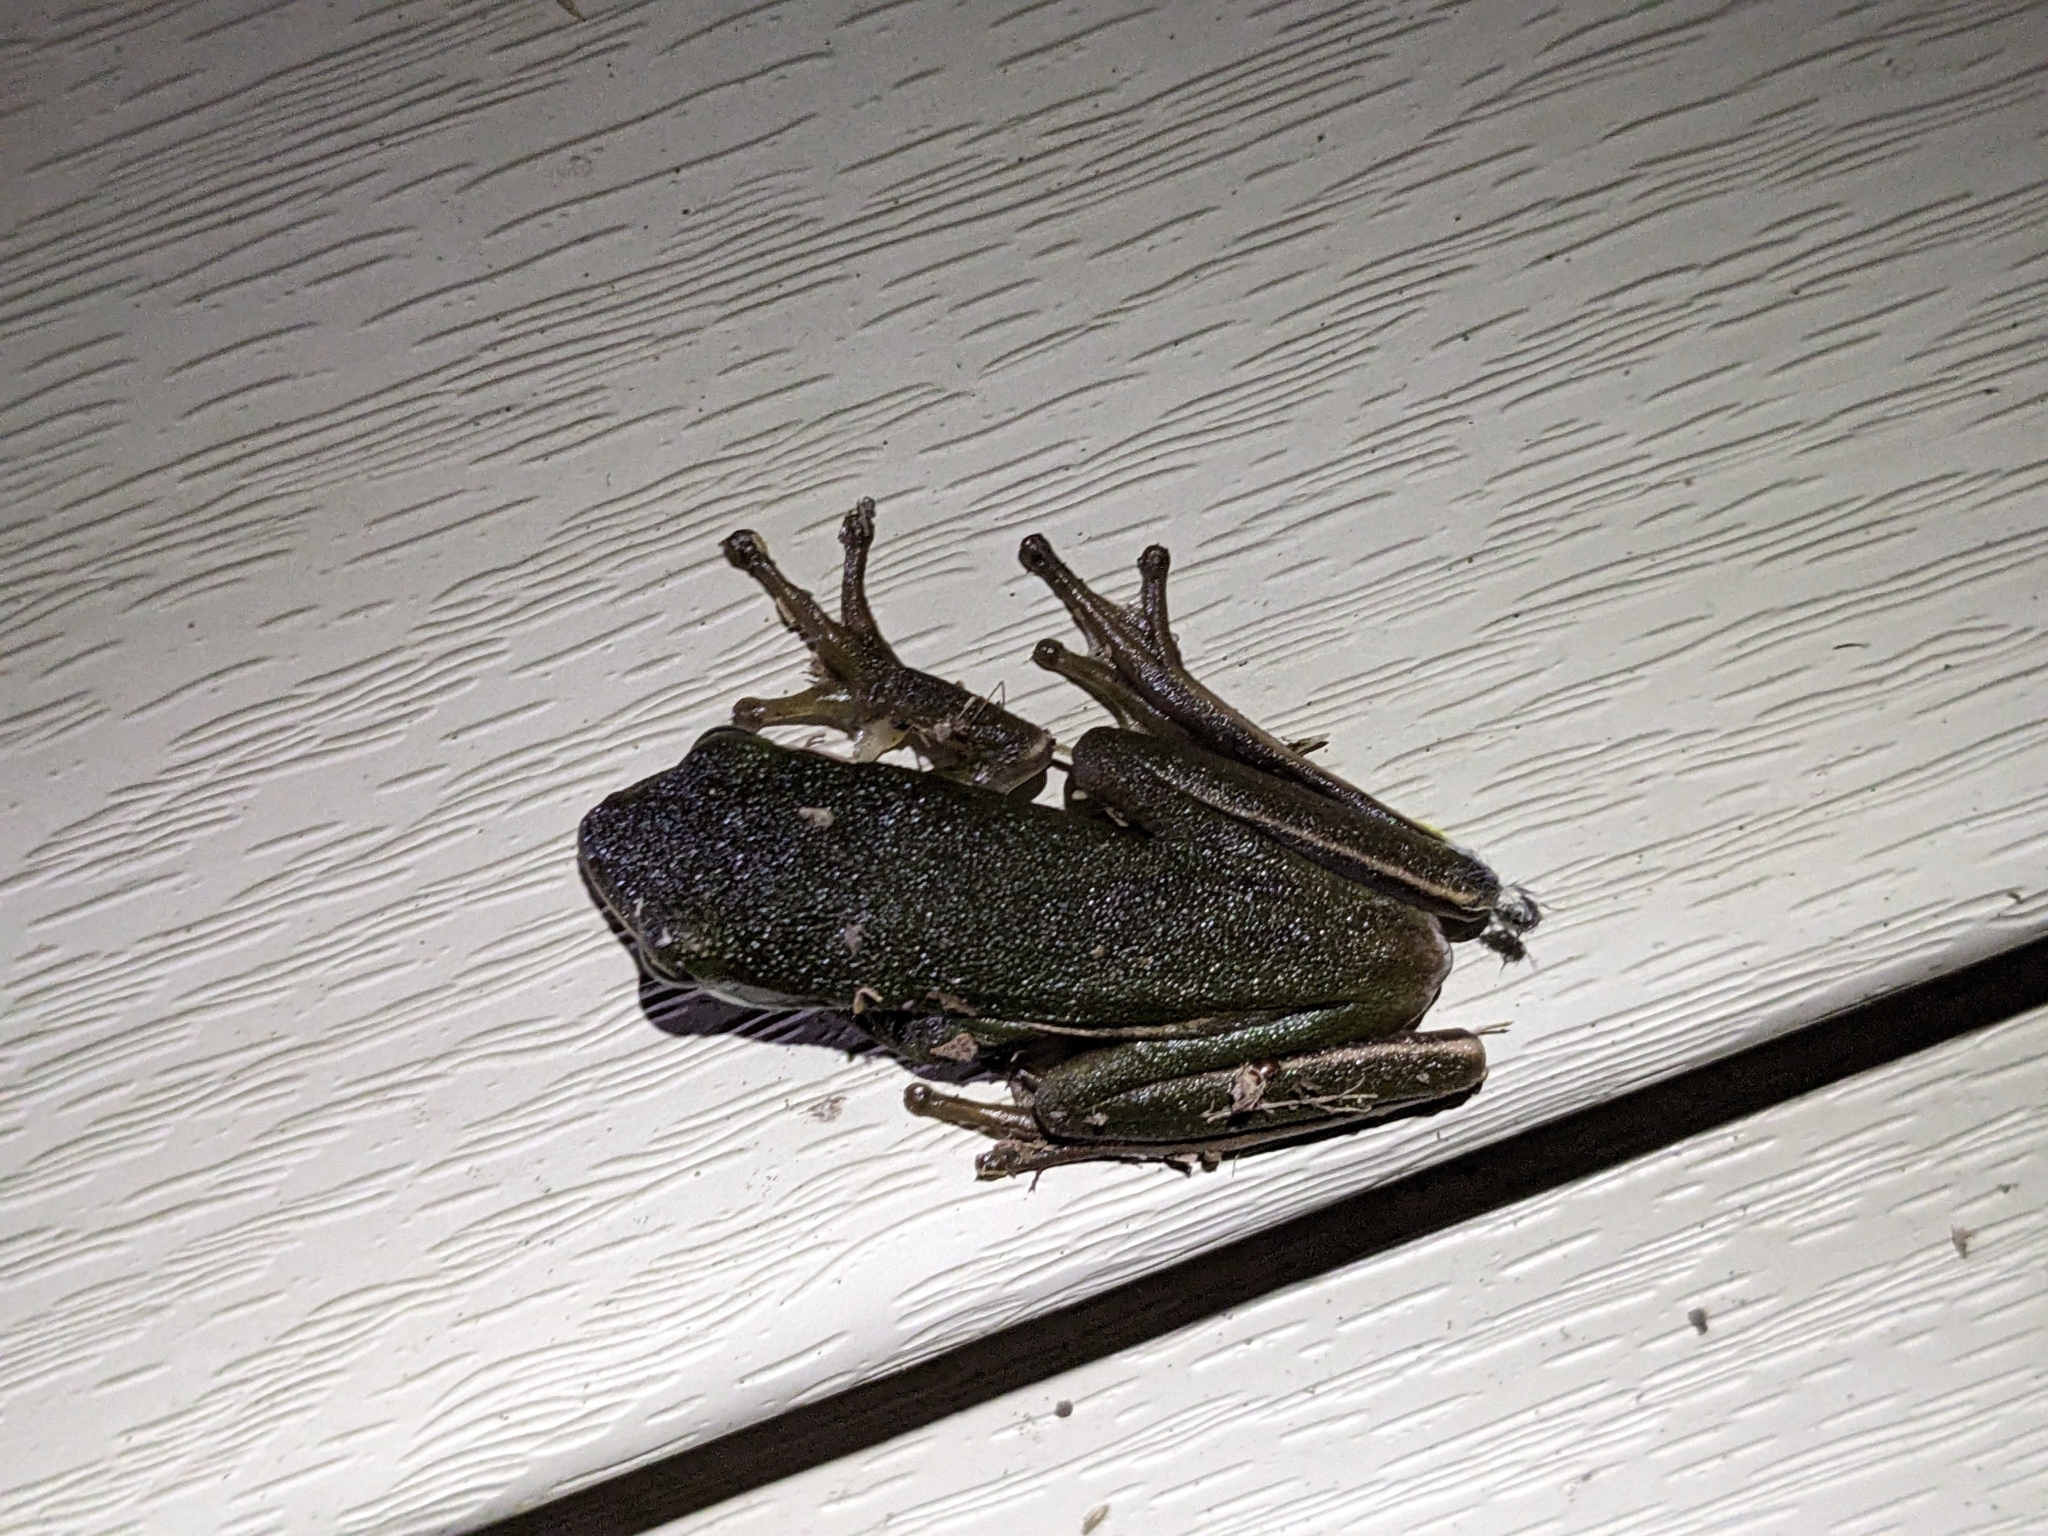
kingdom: Animalia
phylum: Chordata
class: Amphibia
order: Anura
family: Hylidae
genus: Dryophytes
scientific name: Dryophytes cinereus
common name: Green treefrog
